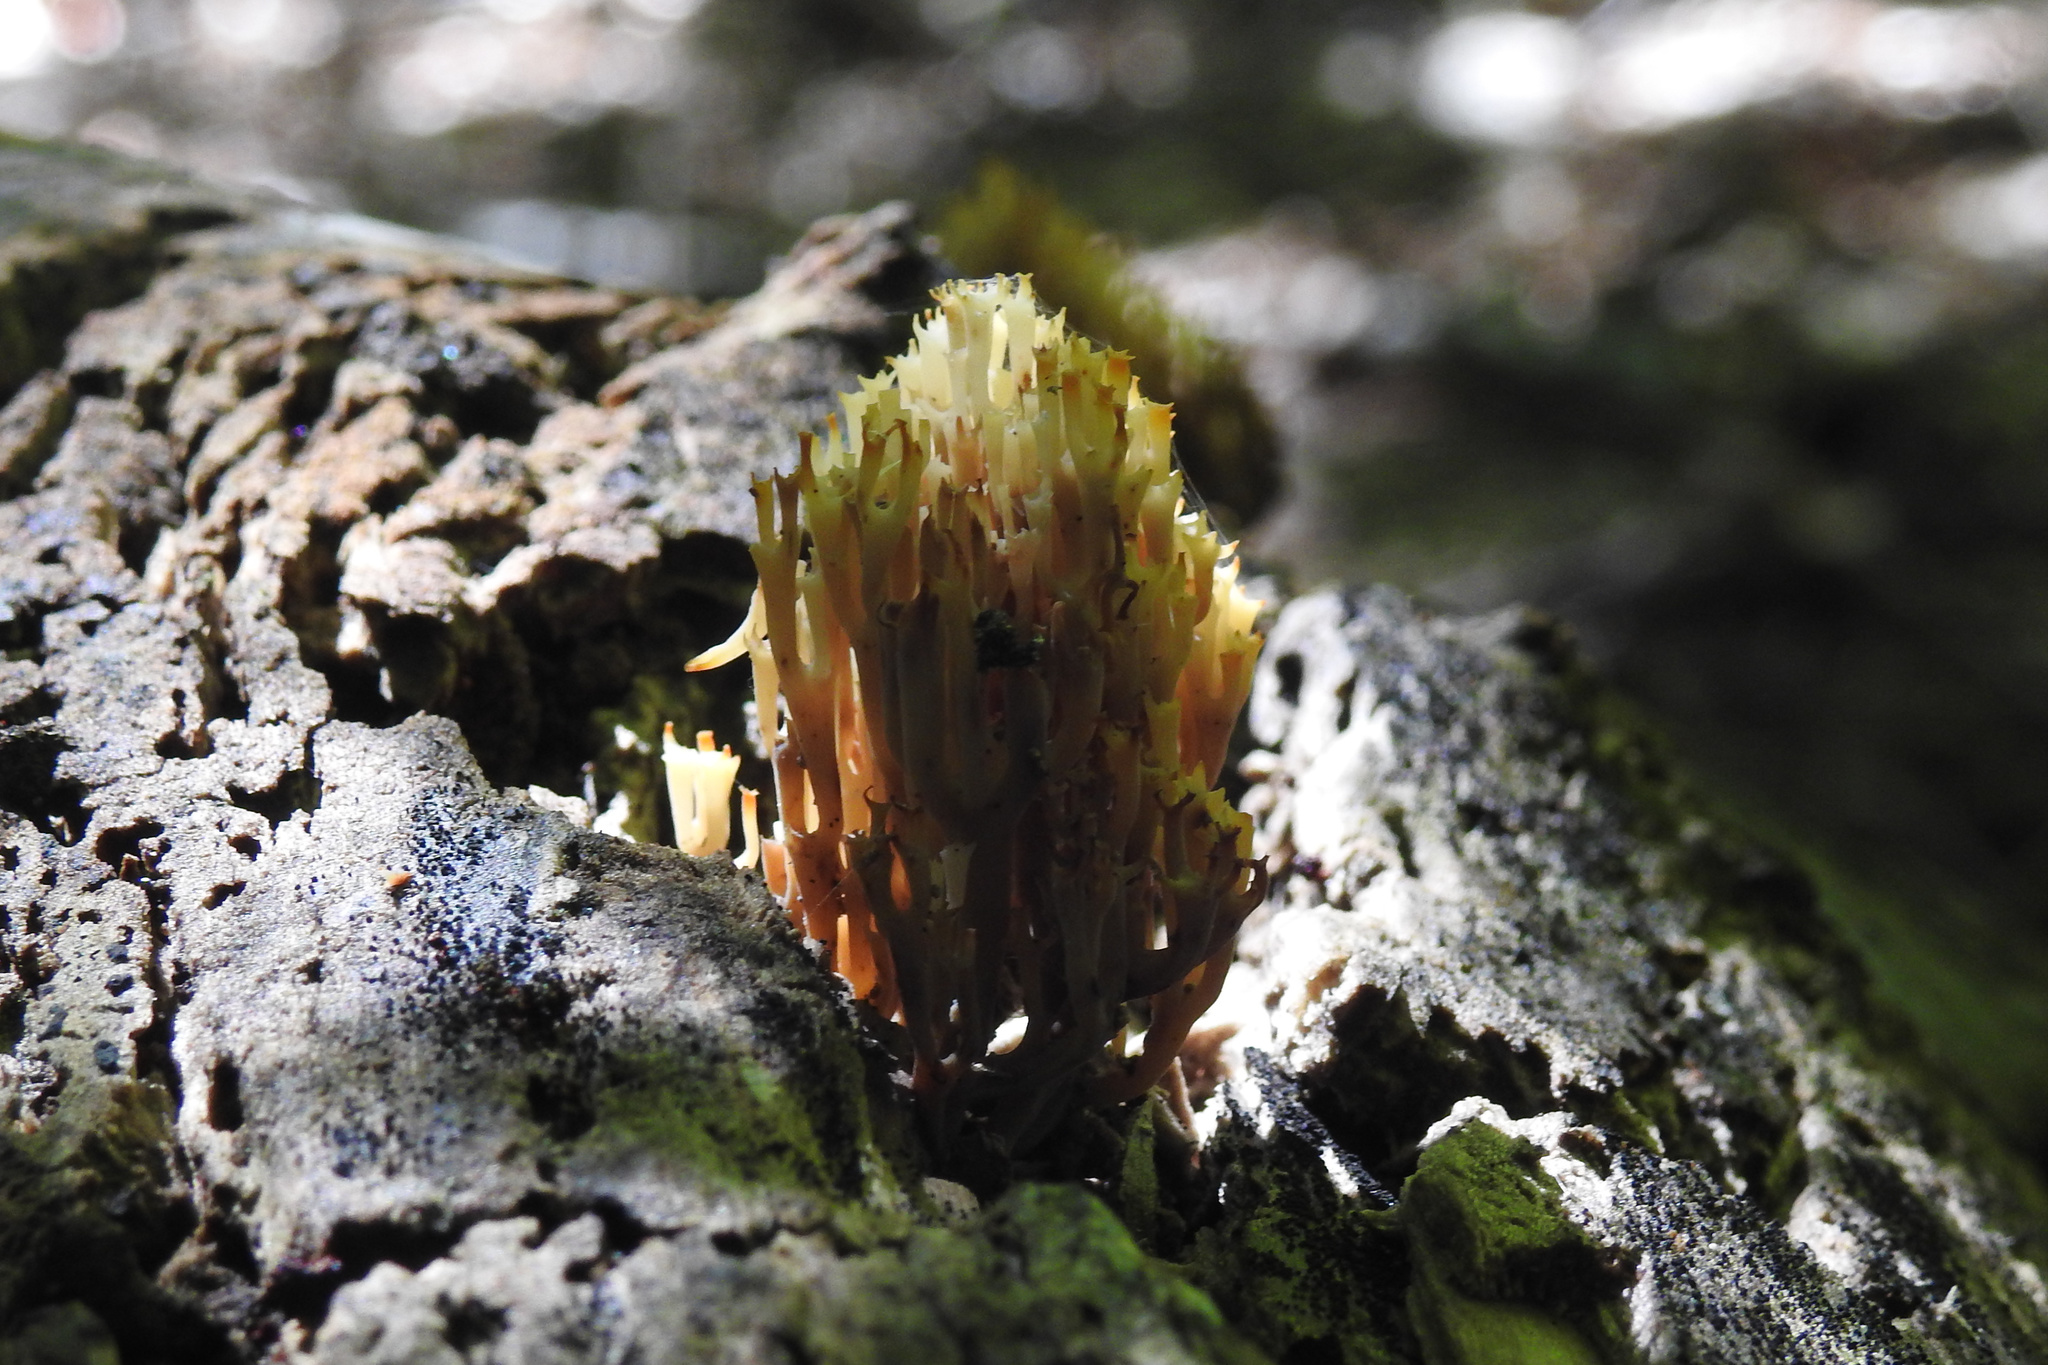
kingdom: Fungi
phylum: Basidiomycota
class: Agaricomycetes
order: Russulales
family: Auriscalpiaceae
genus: Artomyces
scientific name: Artomyces pyxidatus
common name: Crown-tipped coral fungus
